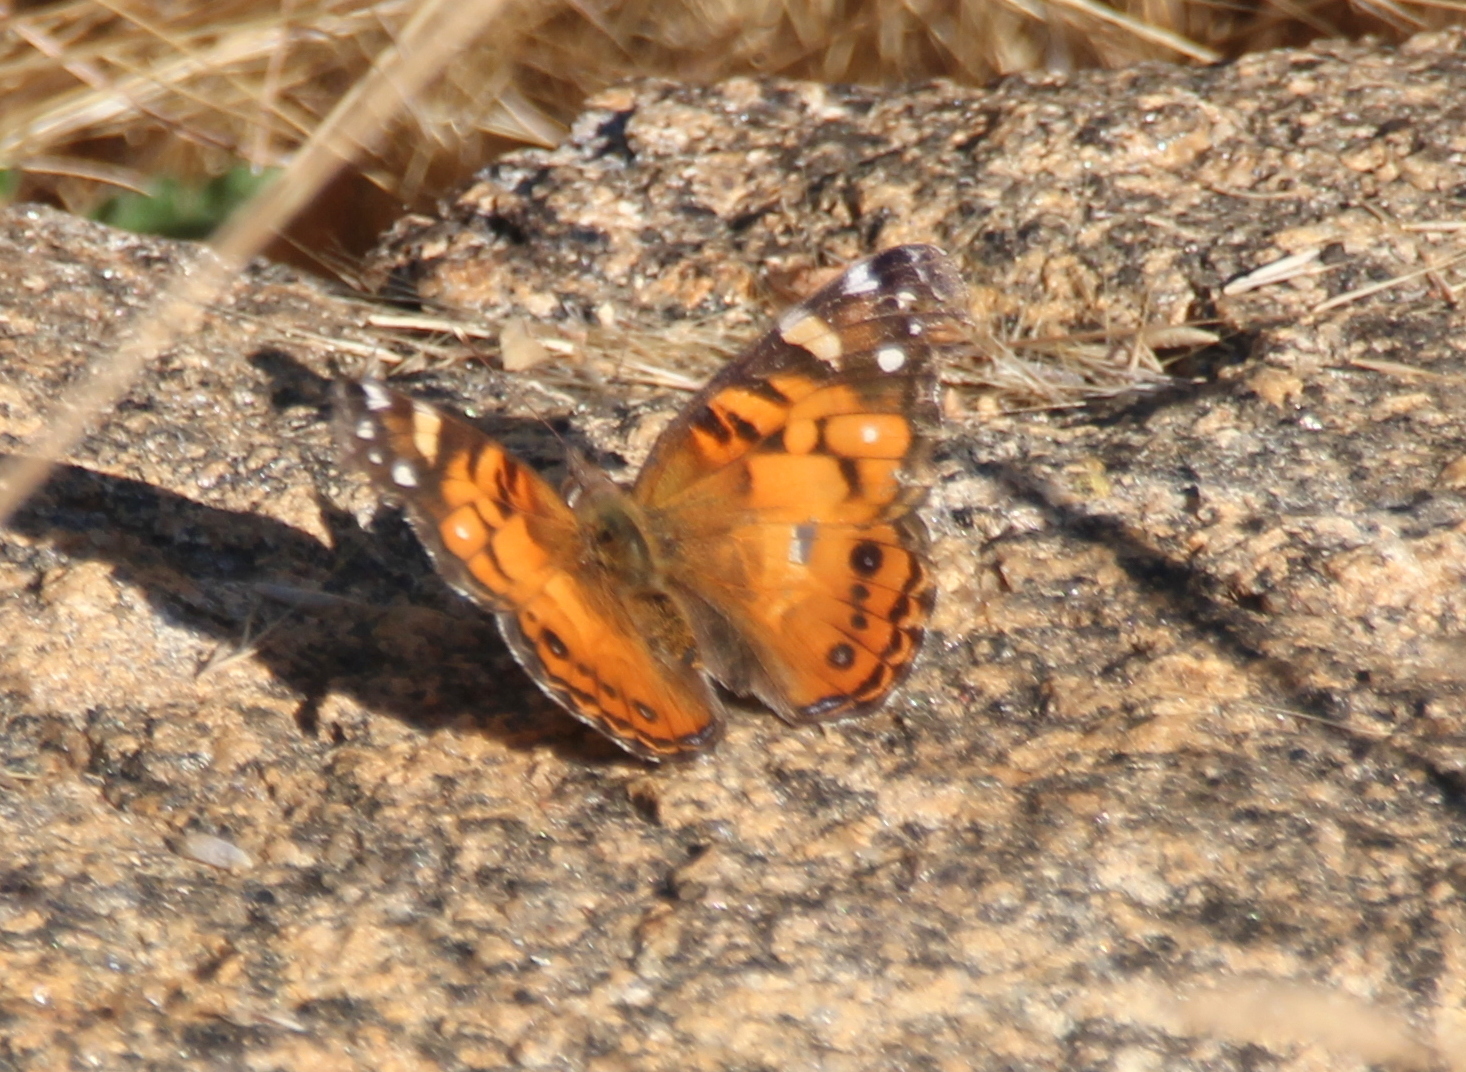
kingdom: Animalia
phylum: Arthropoda
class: Insecta
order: Lepidoptera
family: Nymphalidae
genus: Vanessa
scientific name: Vanessa virginiensis
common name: American lady
